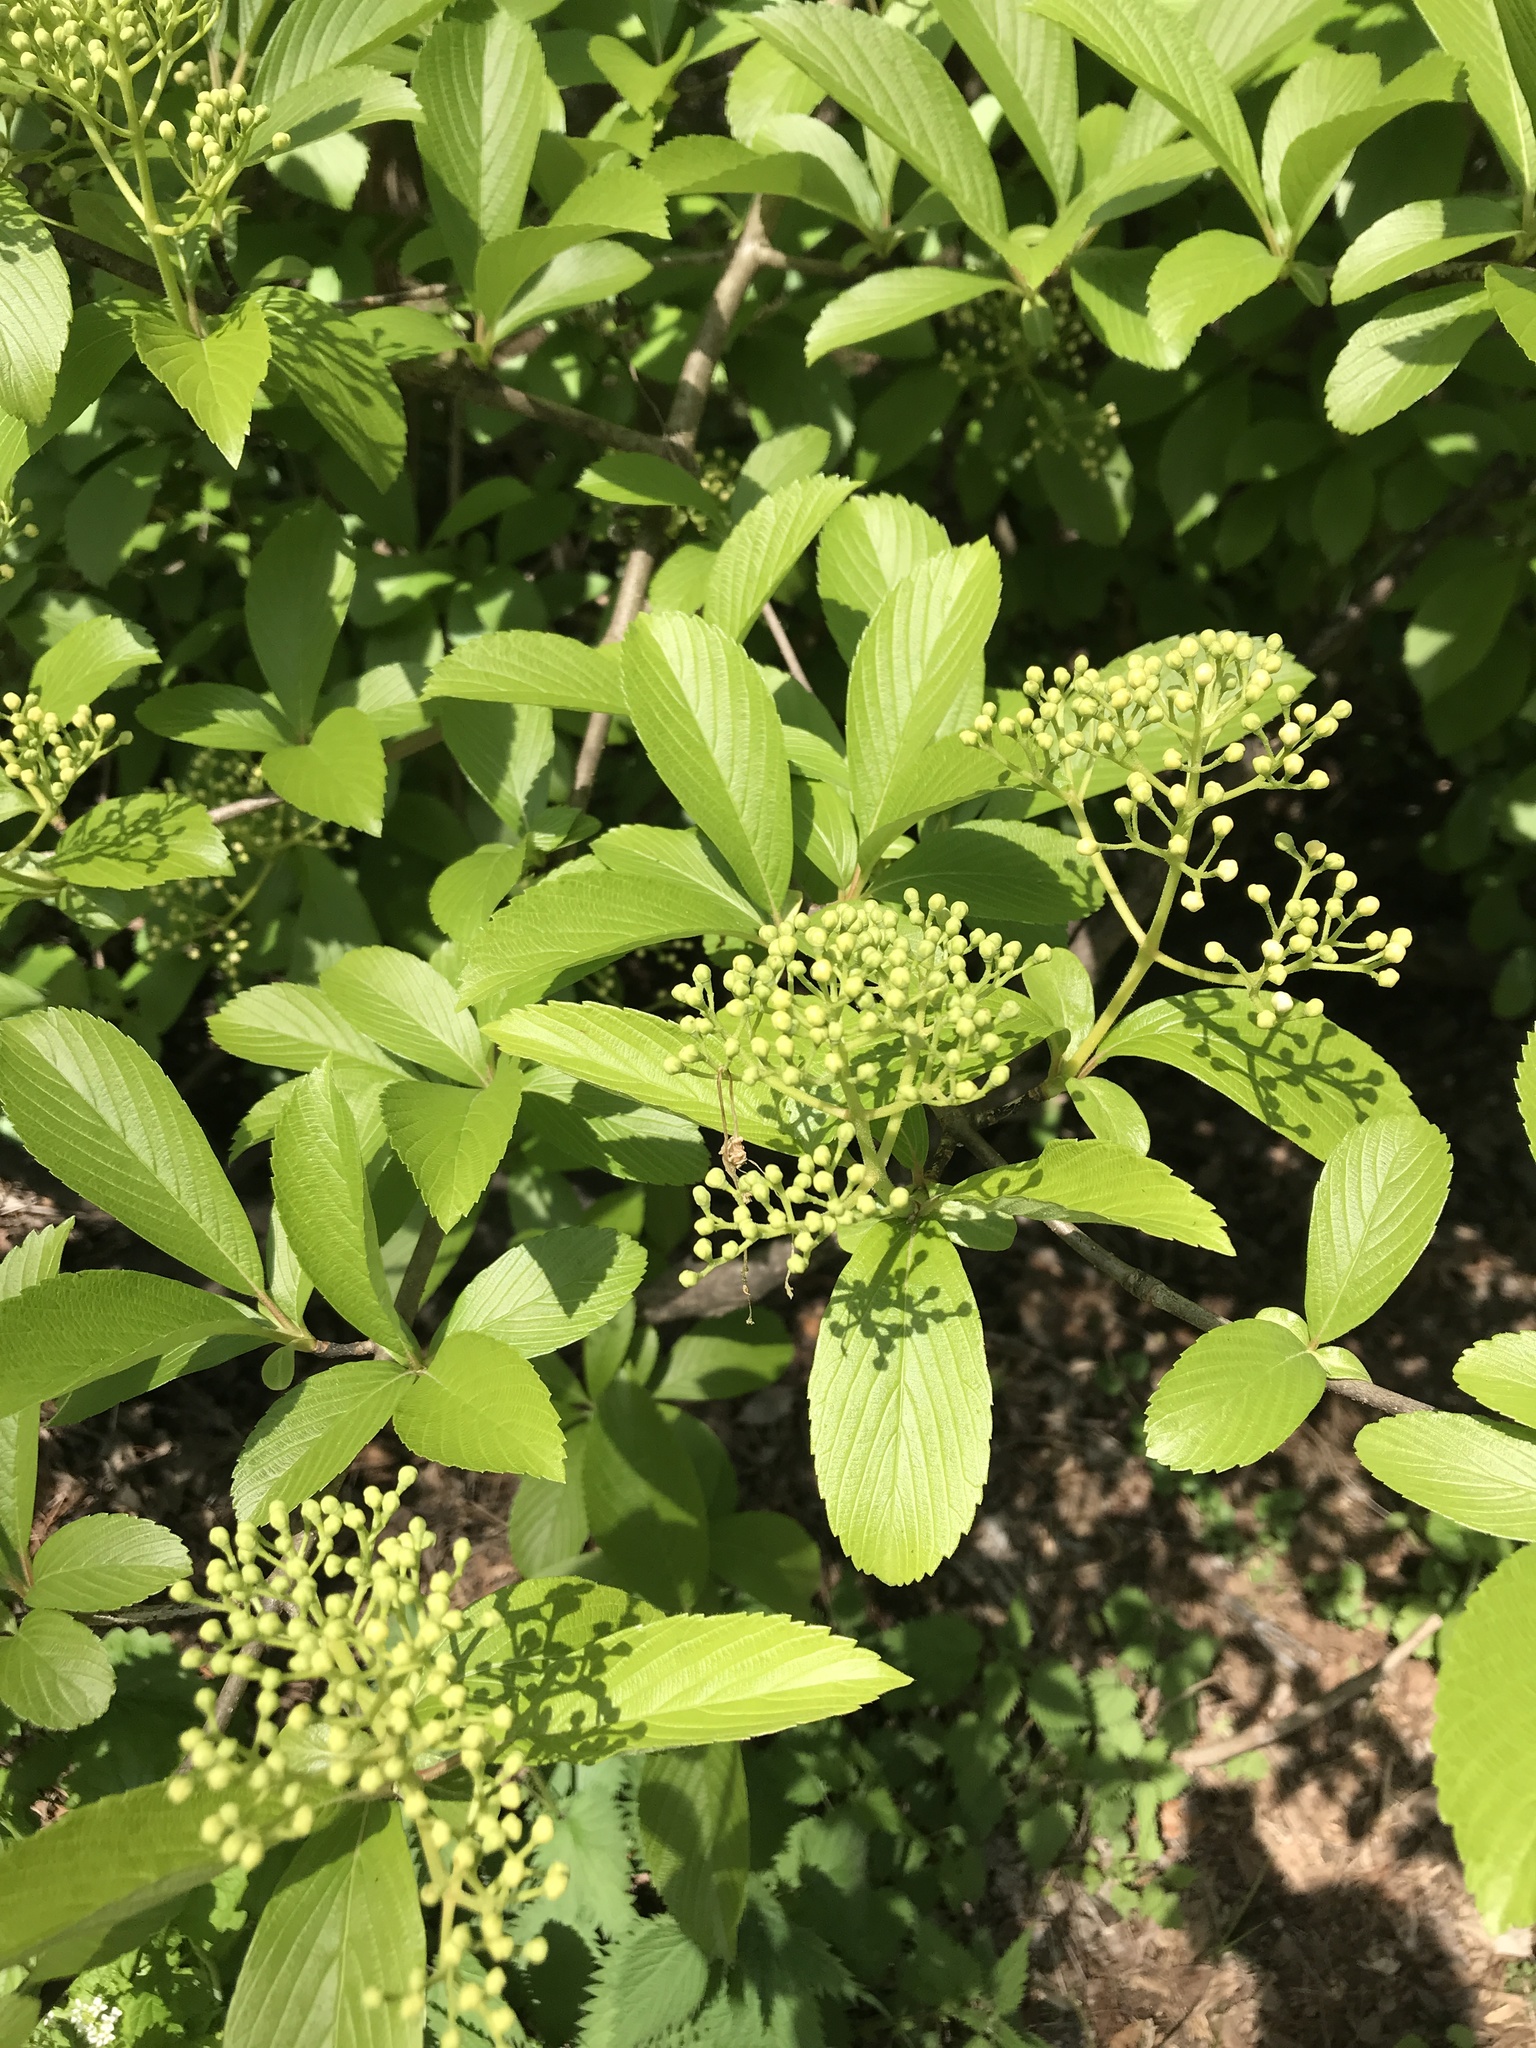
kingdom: Plantae
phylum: Tracheophyta
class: Magnoliopsida
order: Dipsacales
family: Viburnaceae
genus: Viburnum
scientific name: Viburnum sieboldii
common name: Siebold's arrowwood
